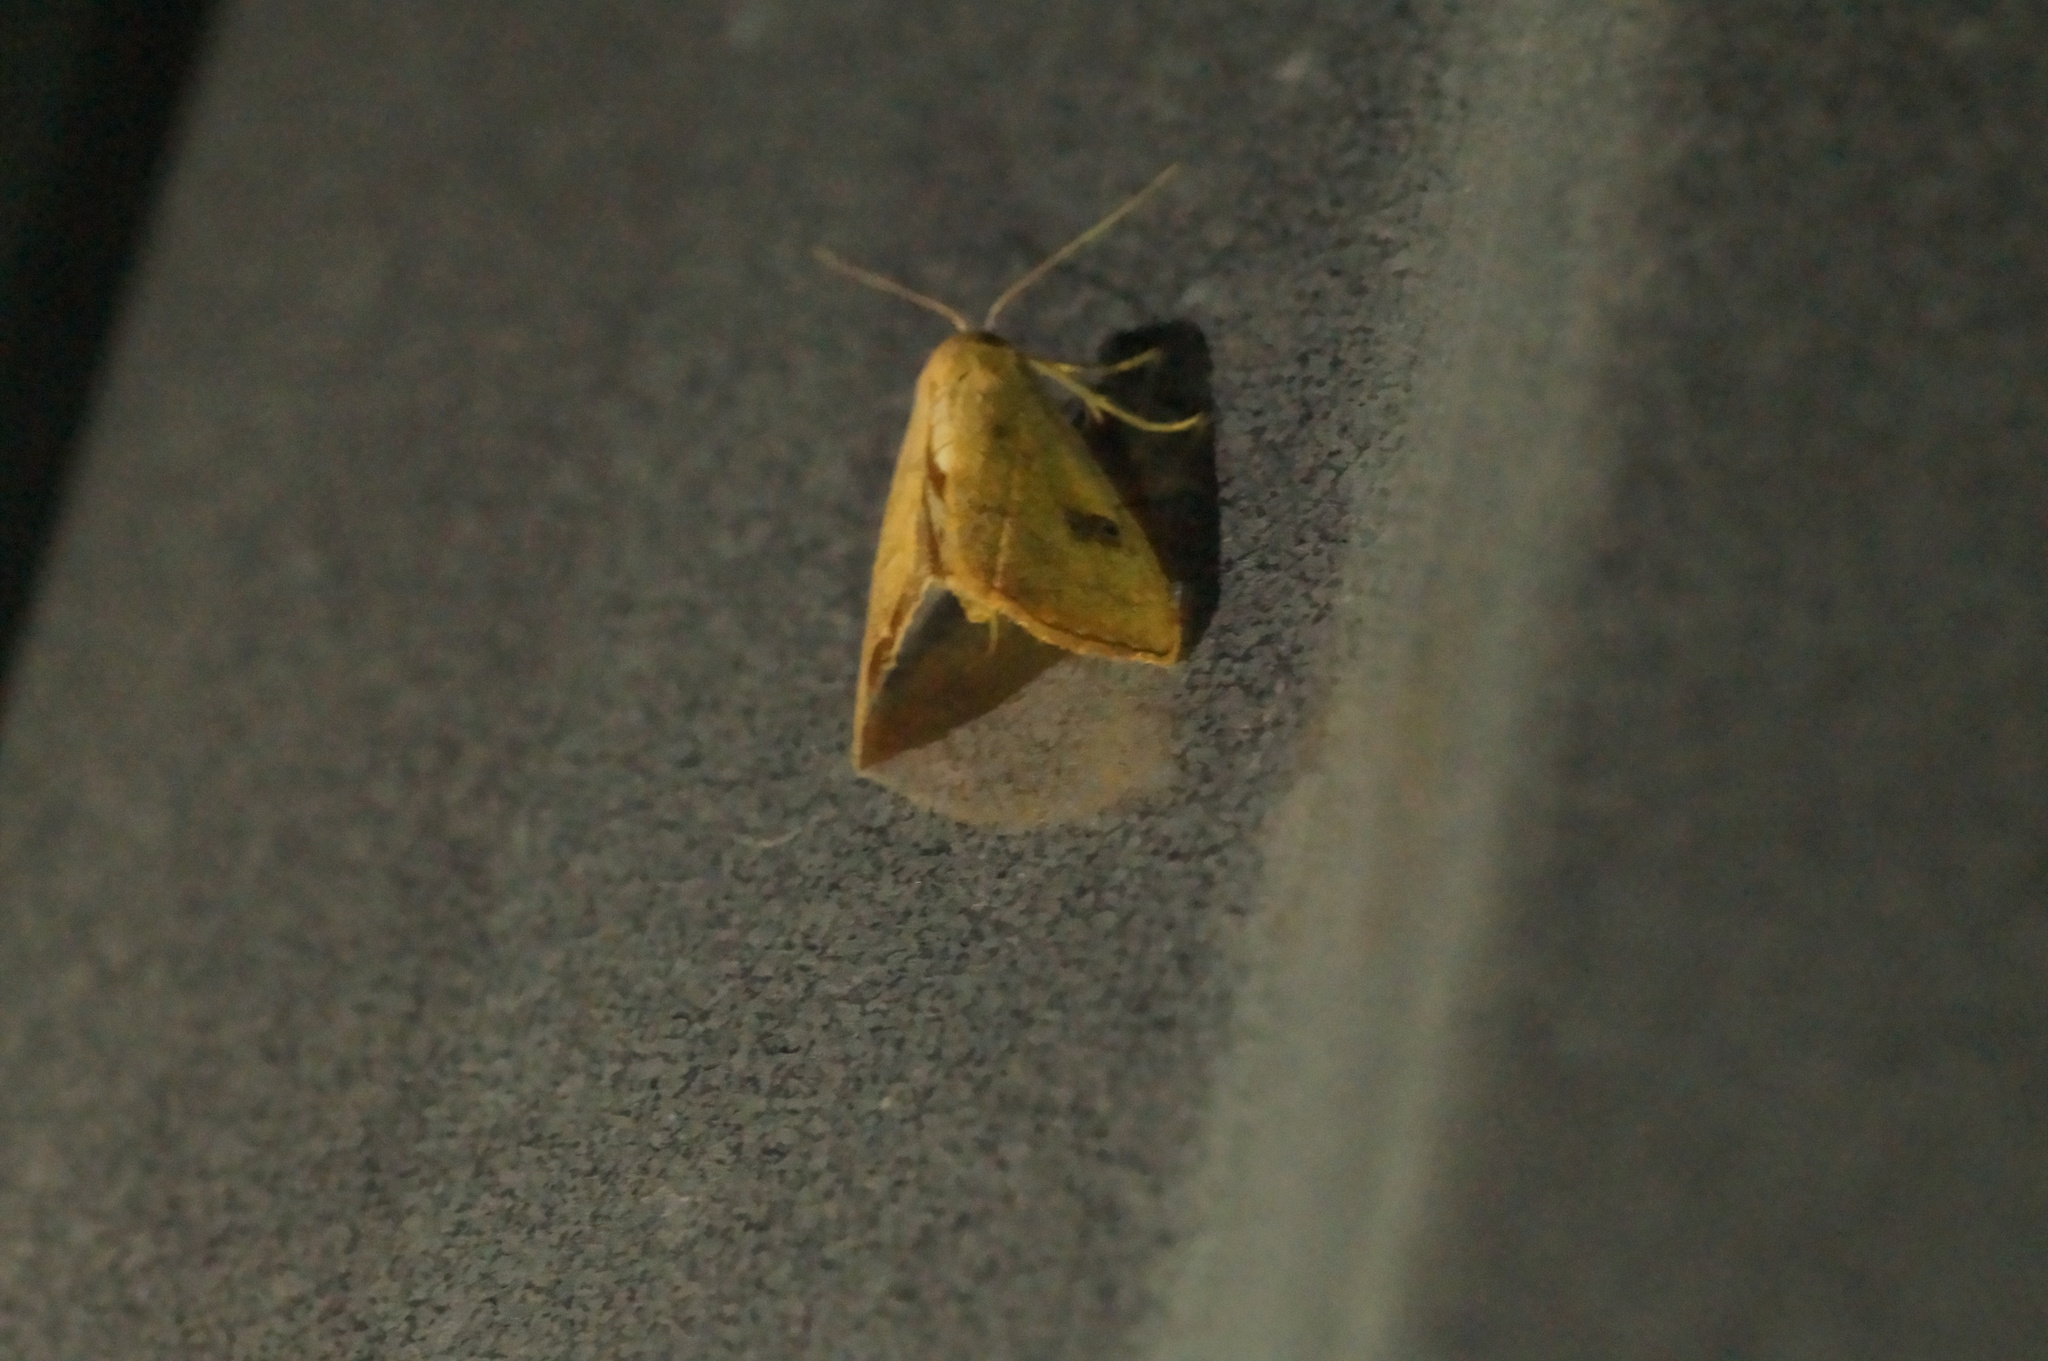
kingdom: Animalia
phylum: Arthropoda
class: Insecta
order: Lepidoptera
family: Erebidae
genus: Rivula
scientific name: Rivula sericealis
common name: Straw dot
